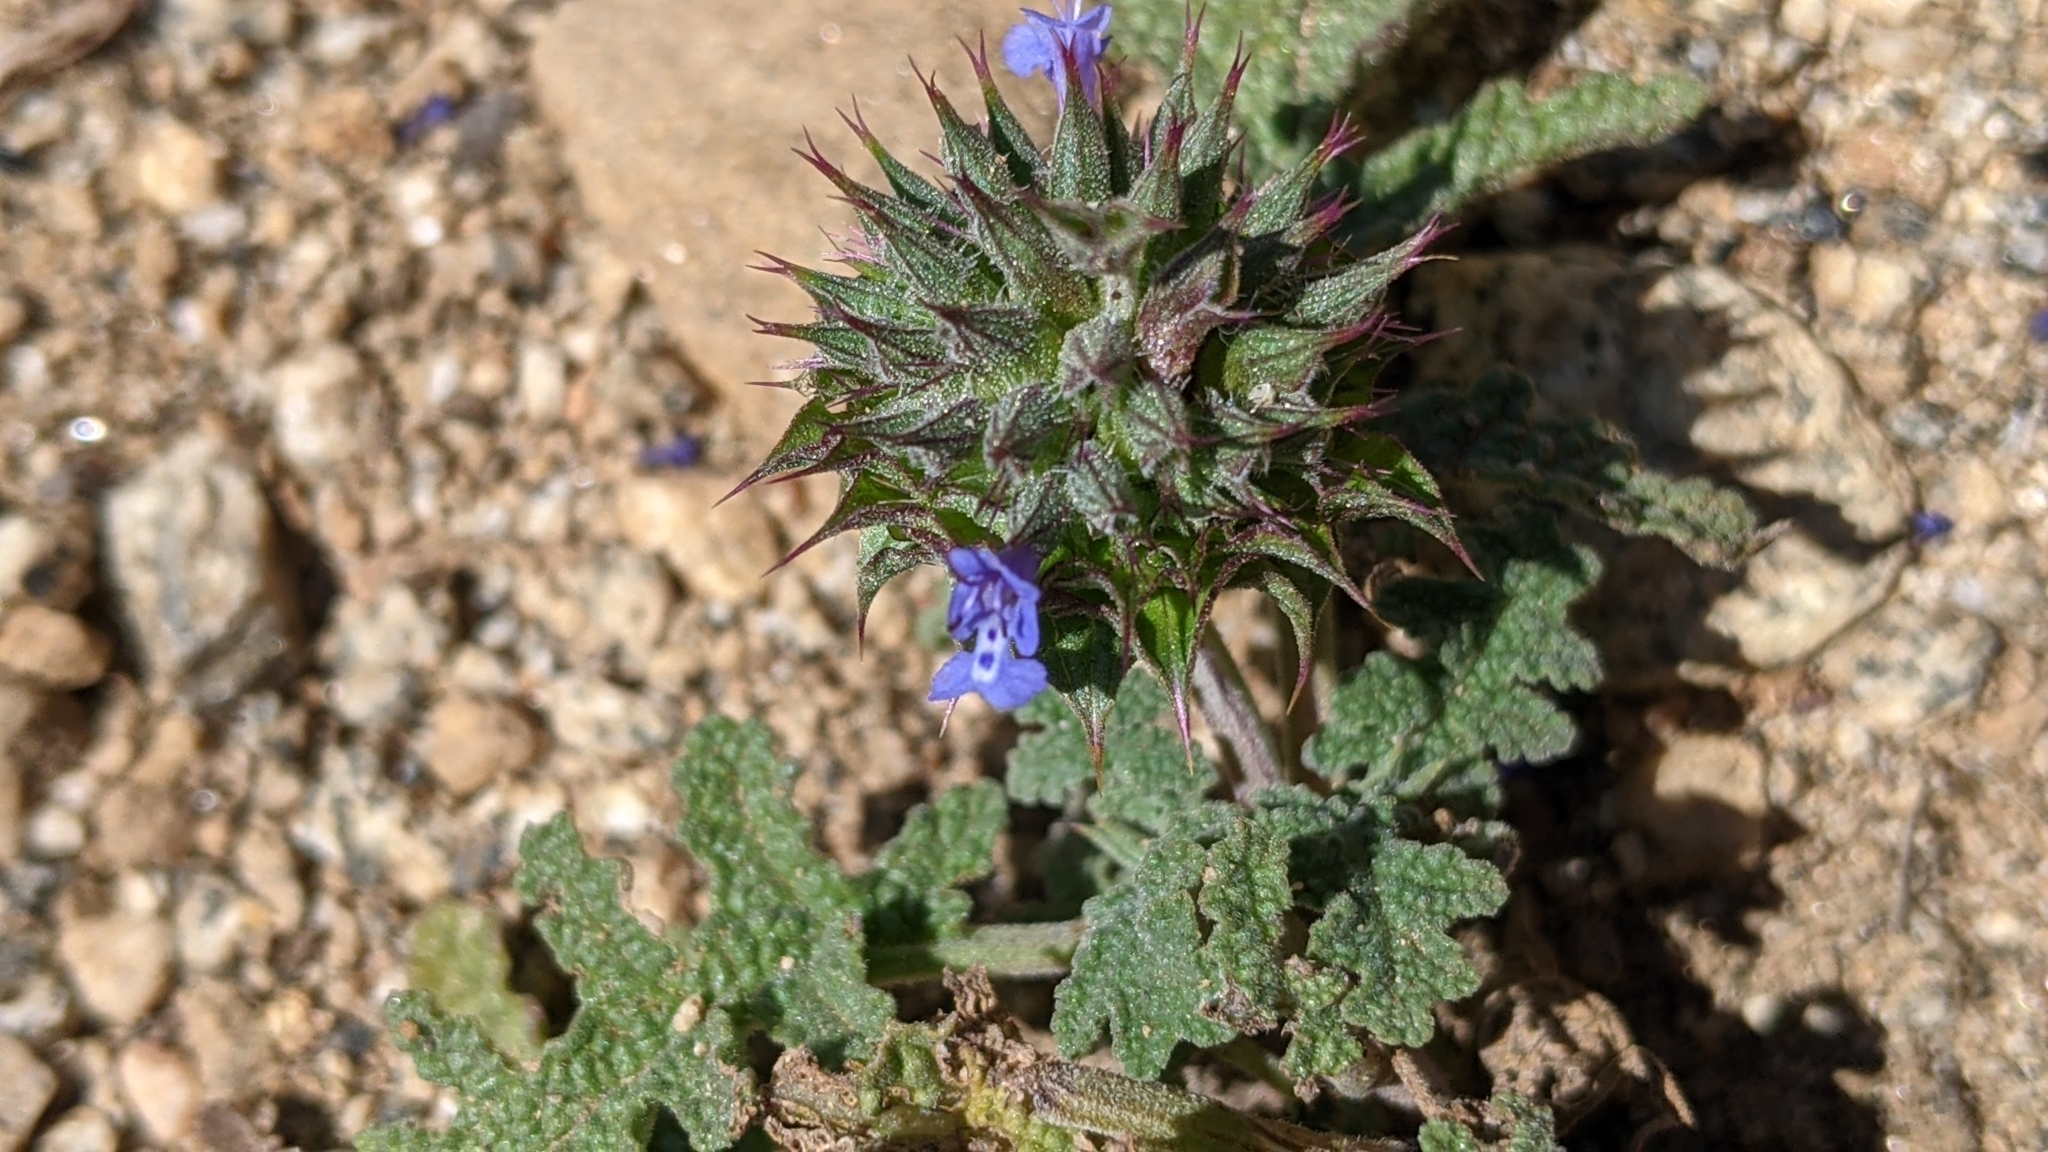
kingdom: Plantae
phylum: Tracheophyta
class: Magnoliopsida
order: Lamiales
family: Lamiaceae
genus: Salvia
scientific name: Salvia columbariae
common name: Chia
